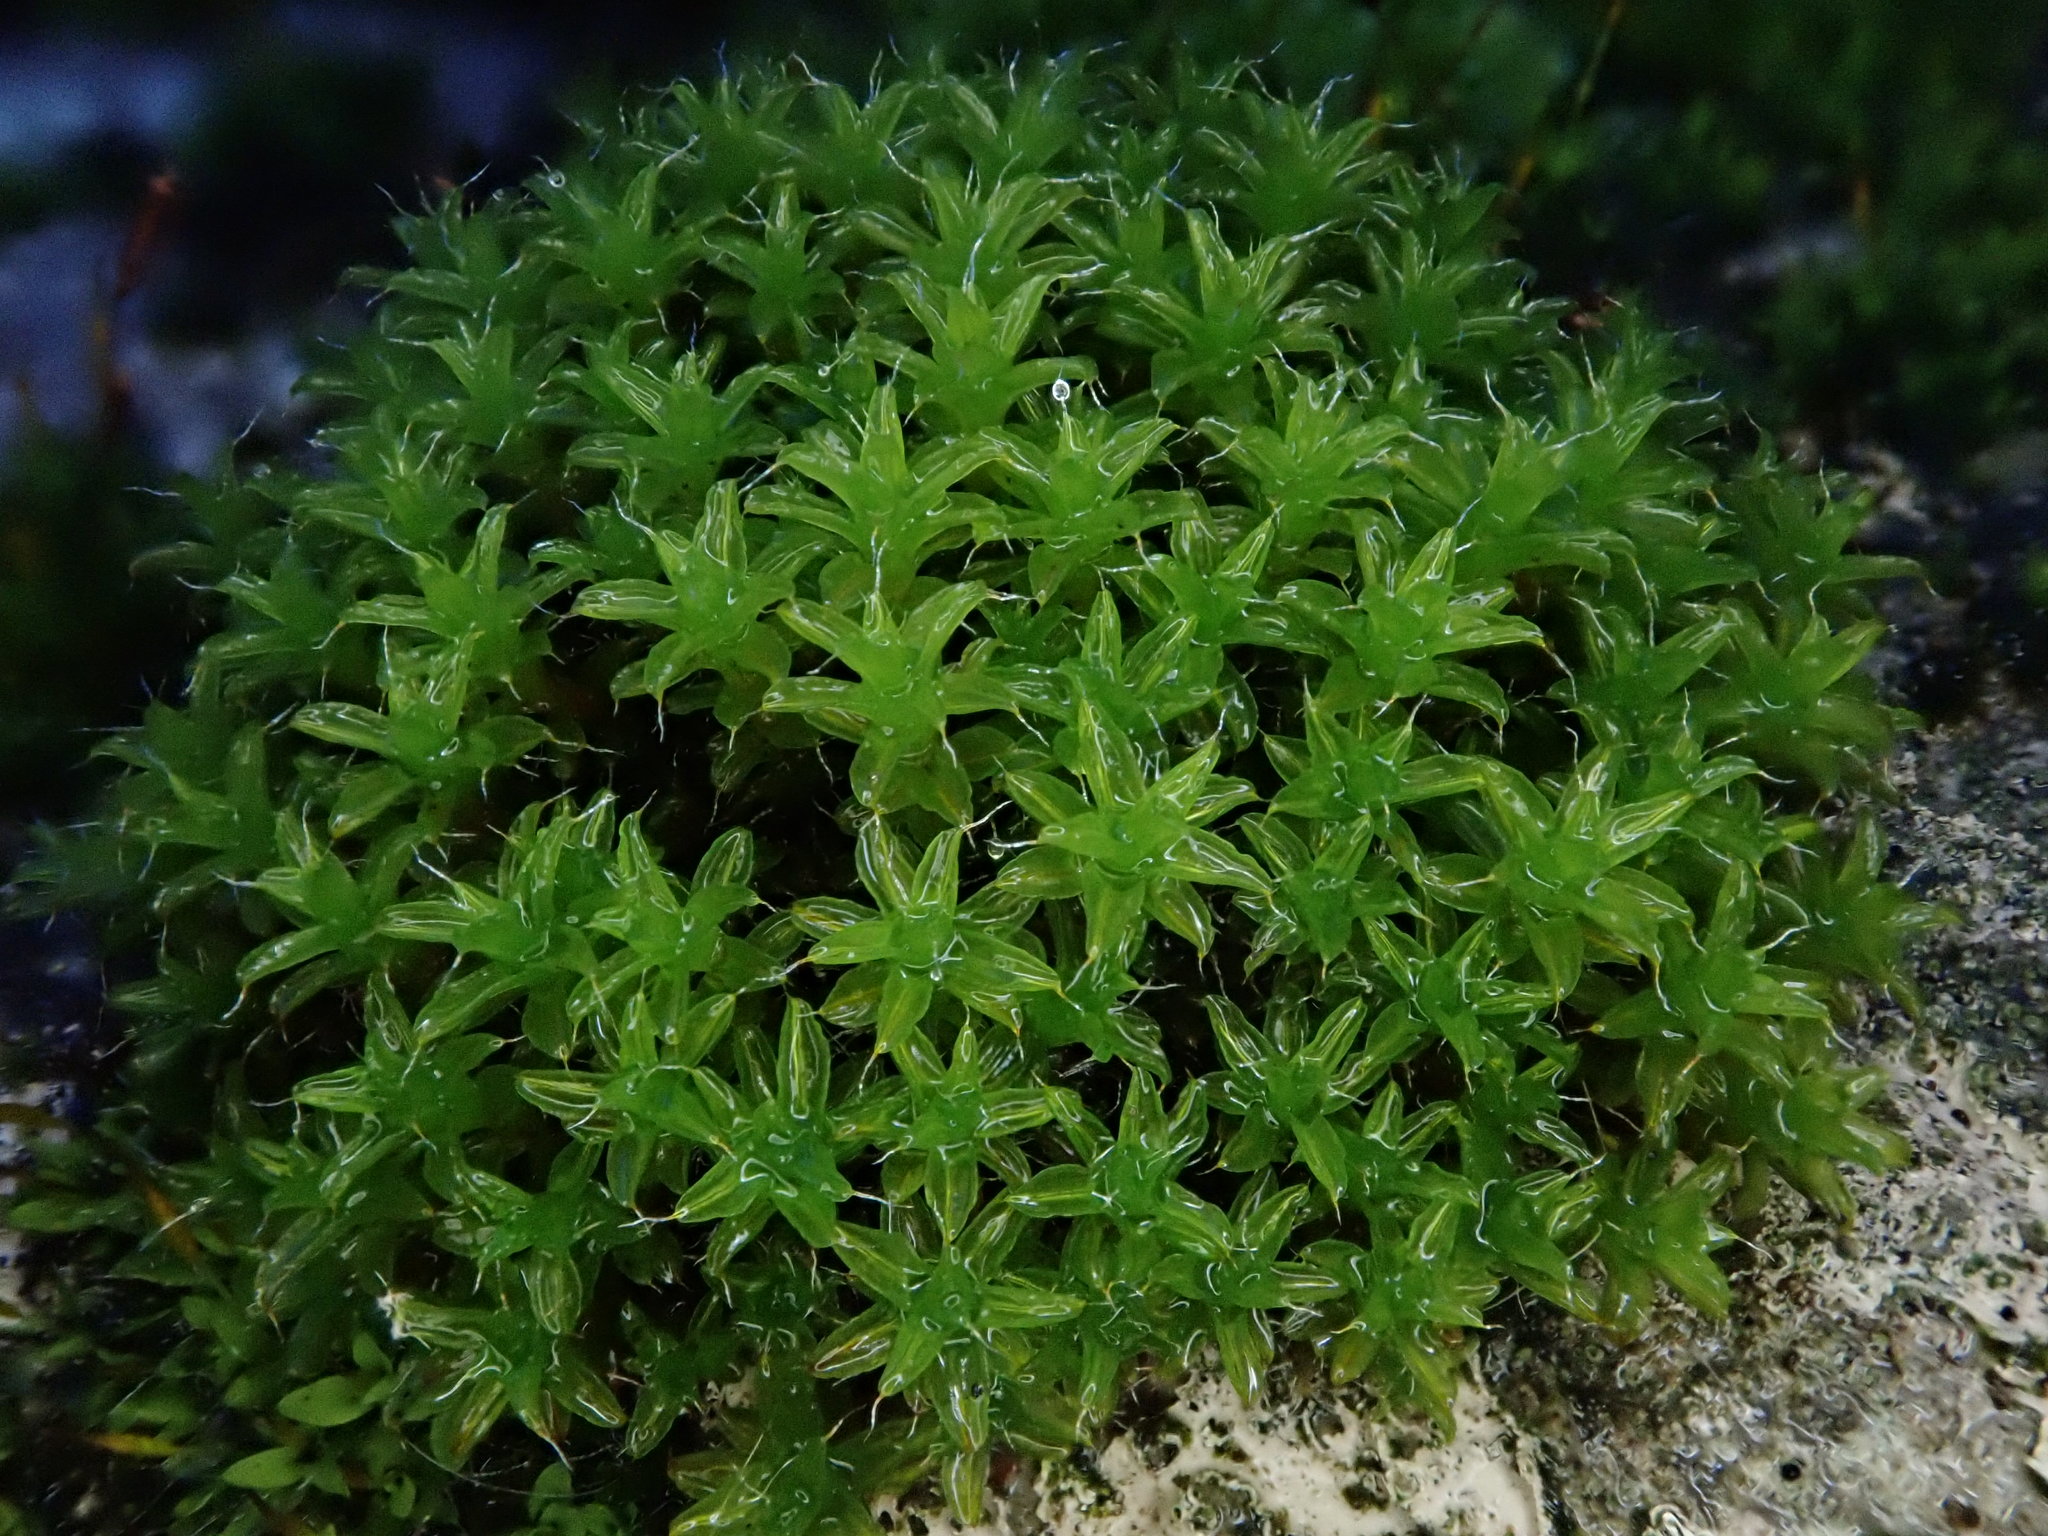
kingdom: Plantae
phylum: Bryophyta
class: Bryopsida
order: Pottiales
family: Pottiaceae
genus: Syntrichia
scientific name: Syntrichia ruralis
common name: Sidewalk screw moss
